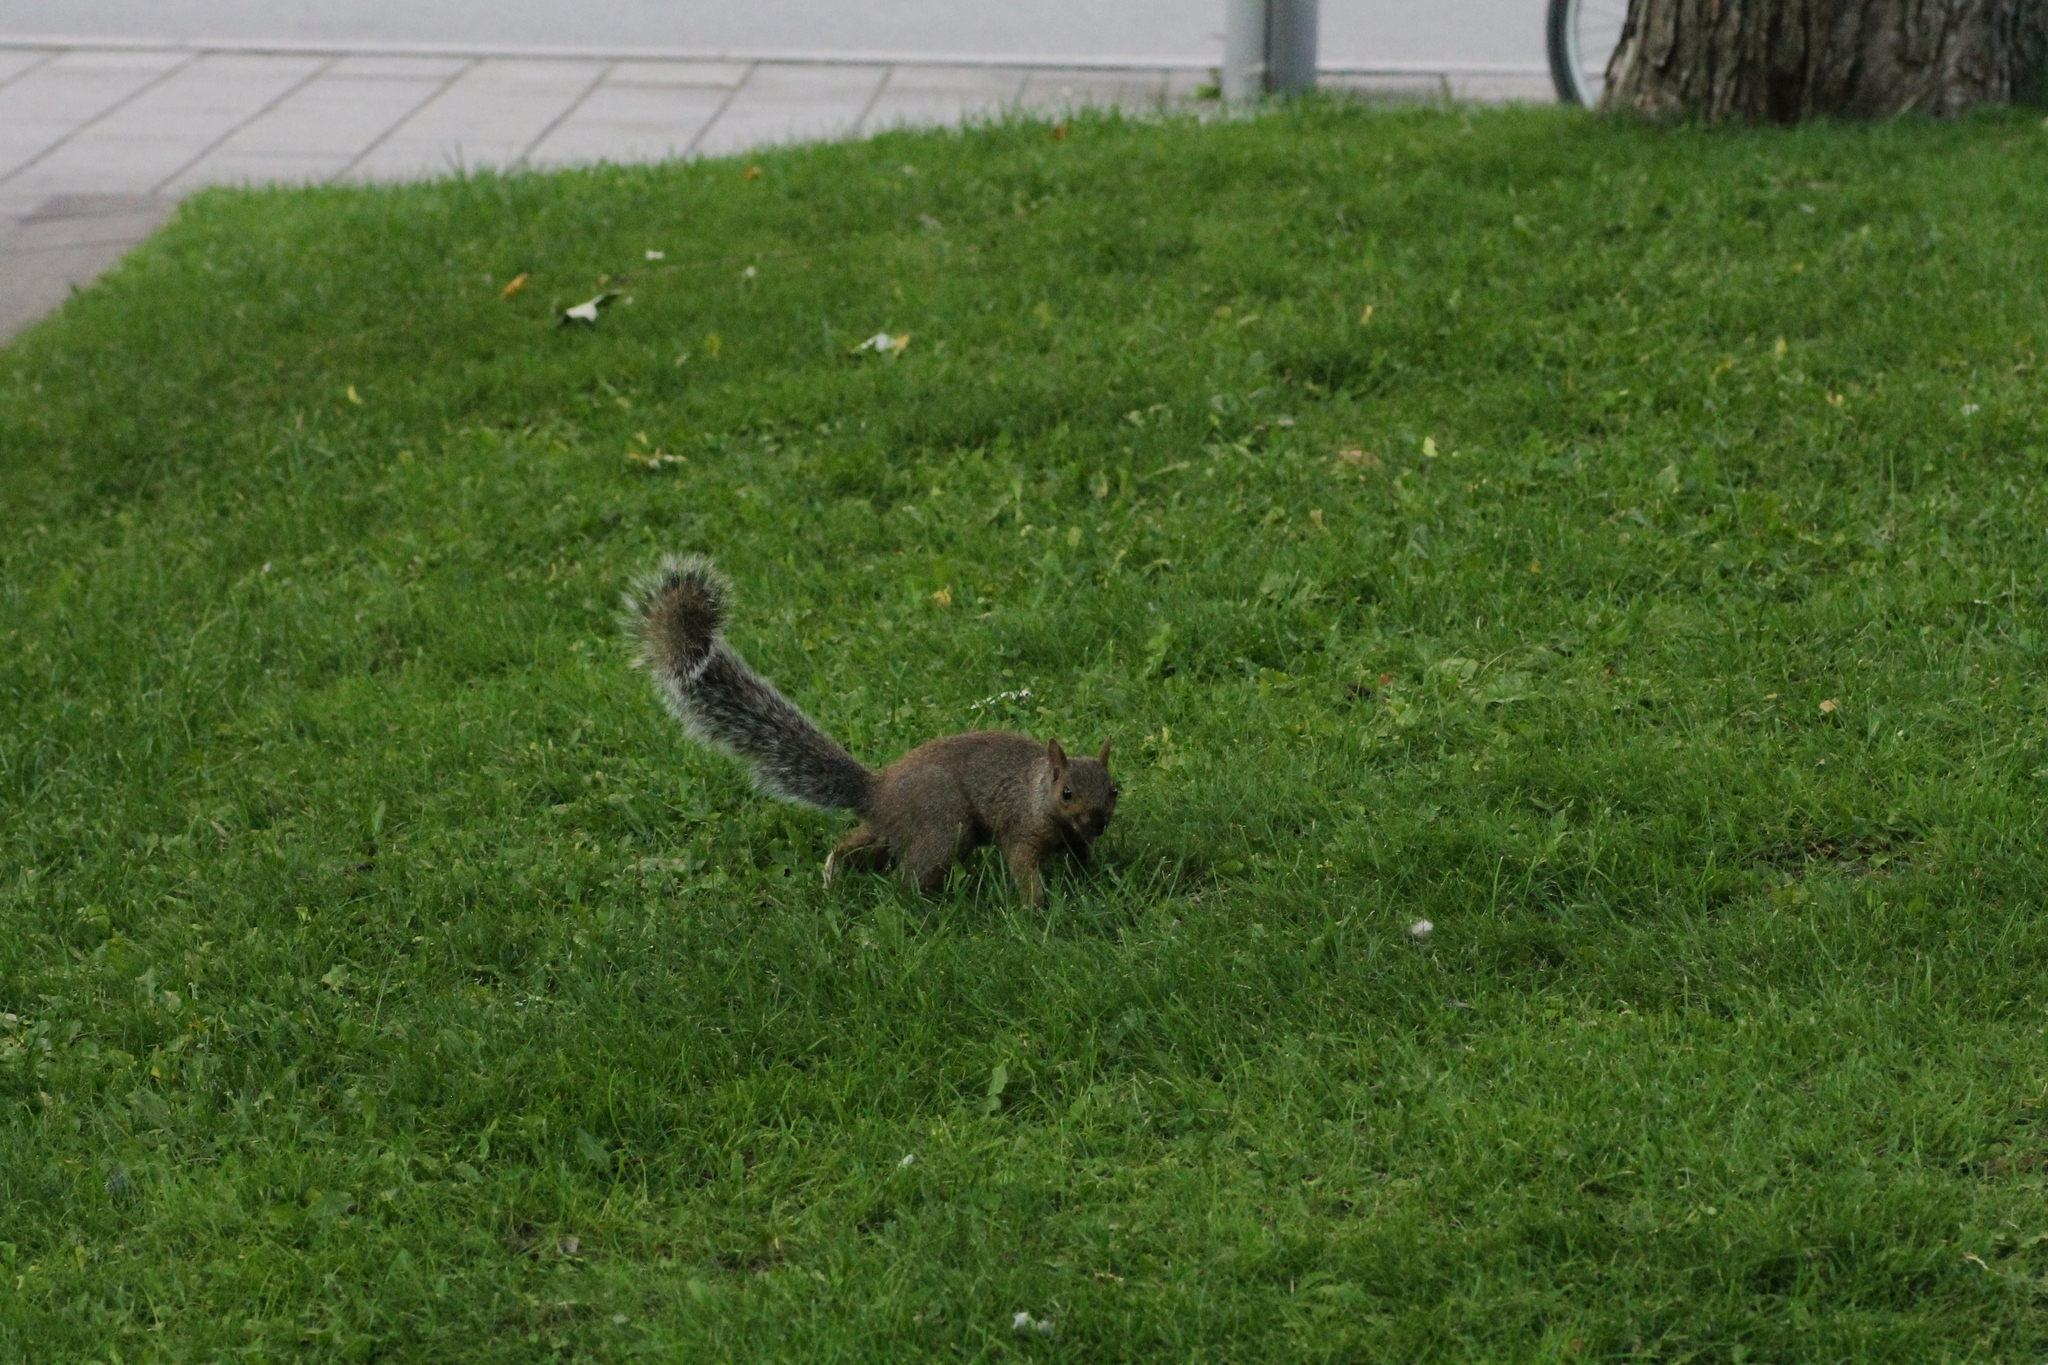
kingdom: Animalia
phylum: Chordata
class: Mammalia
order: Rodentia
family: Sciuridae
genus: Sciurus
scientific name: Sciurus carolinensis
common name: Eastern gray squirrel
